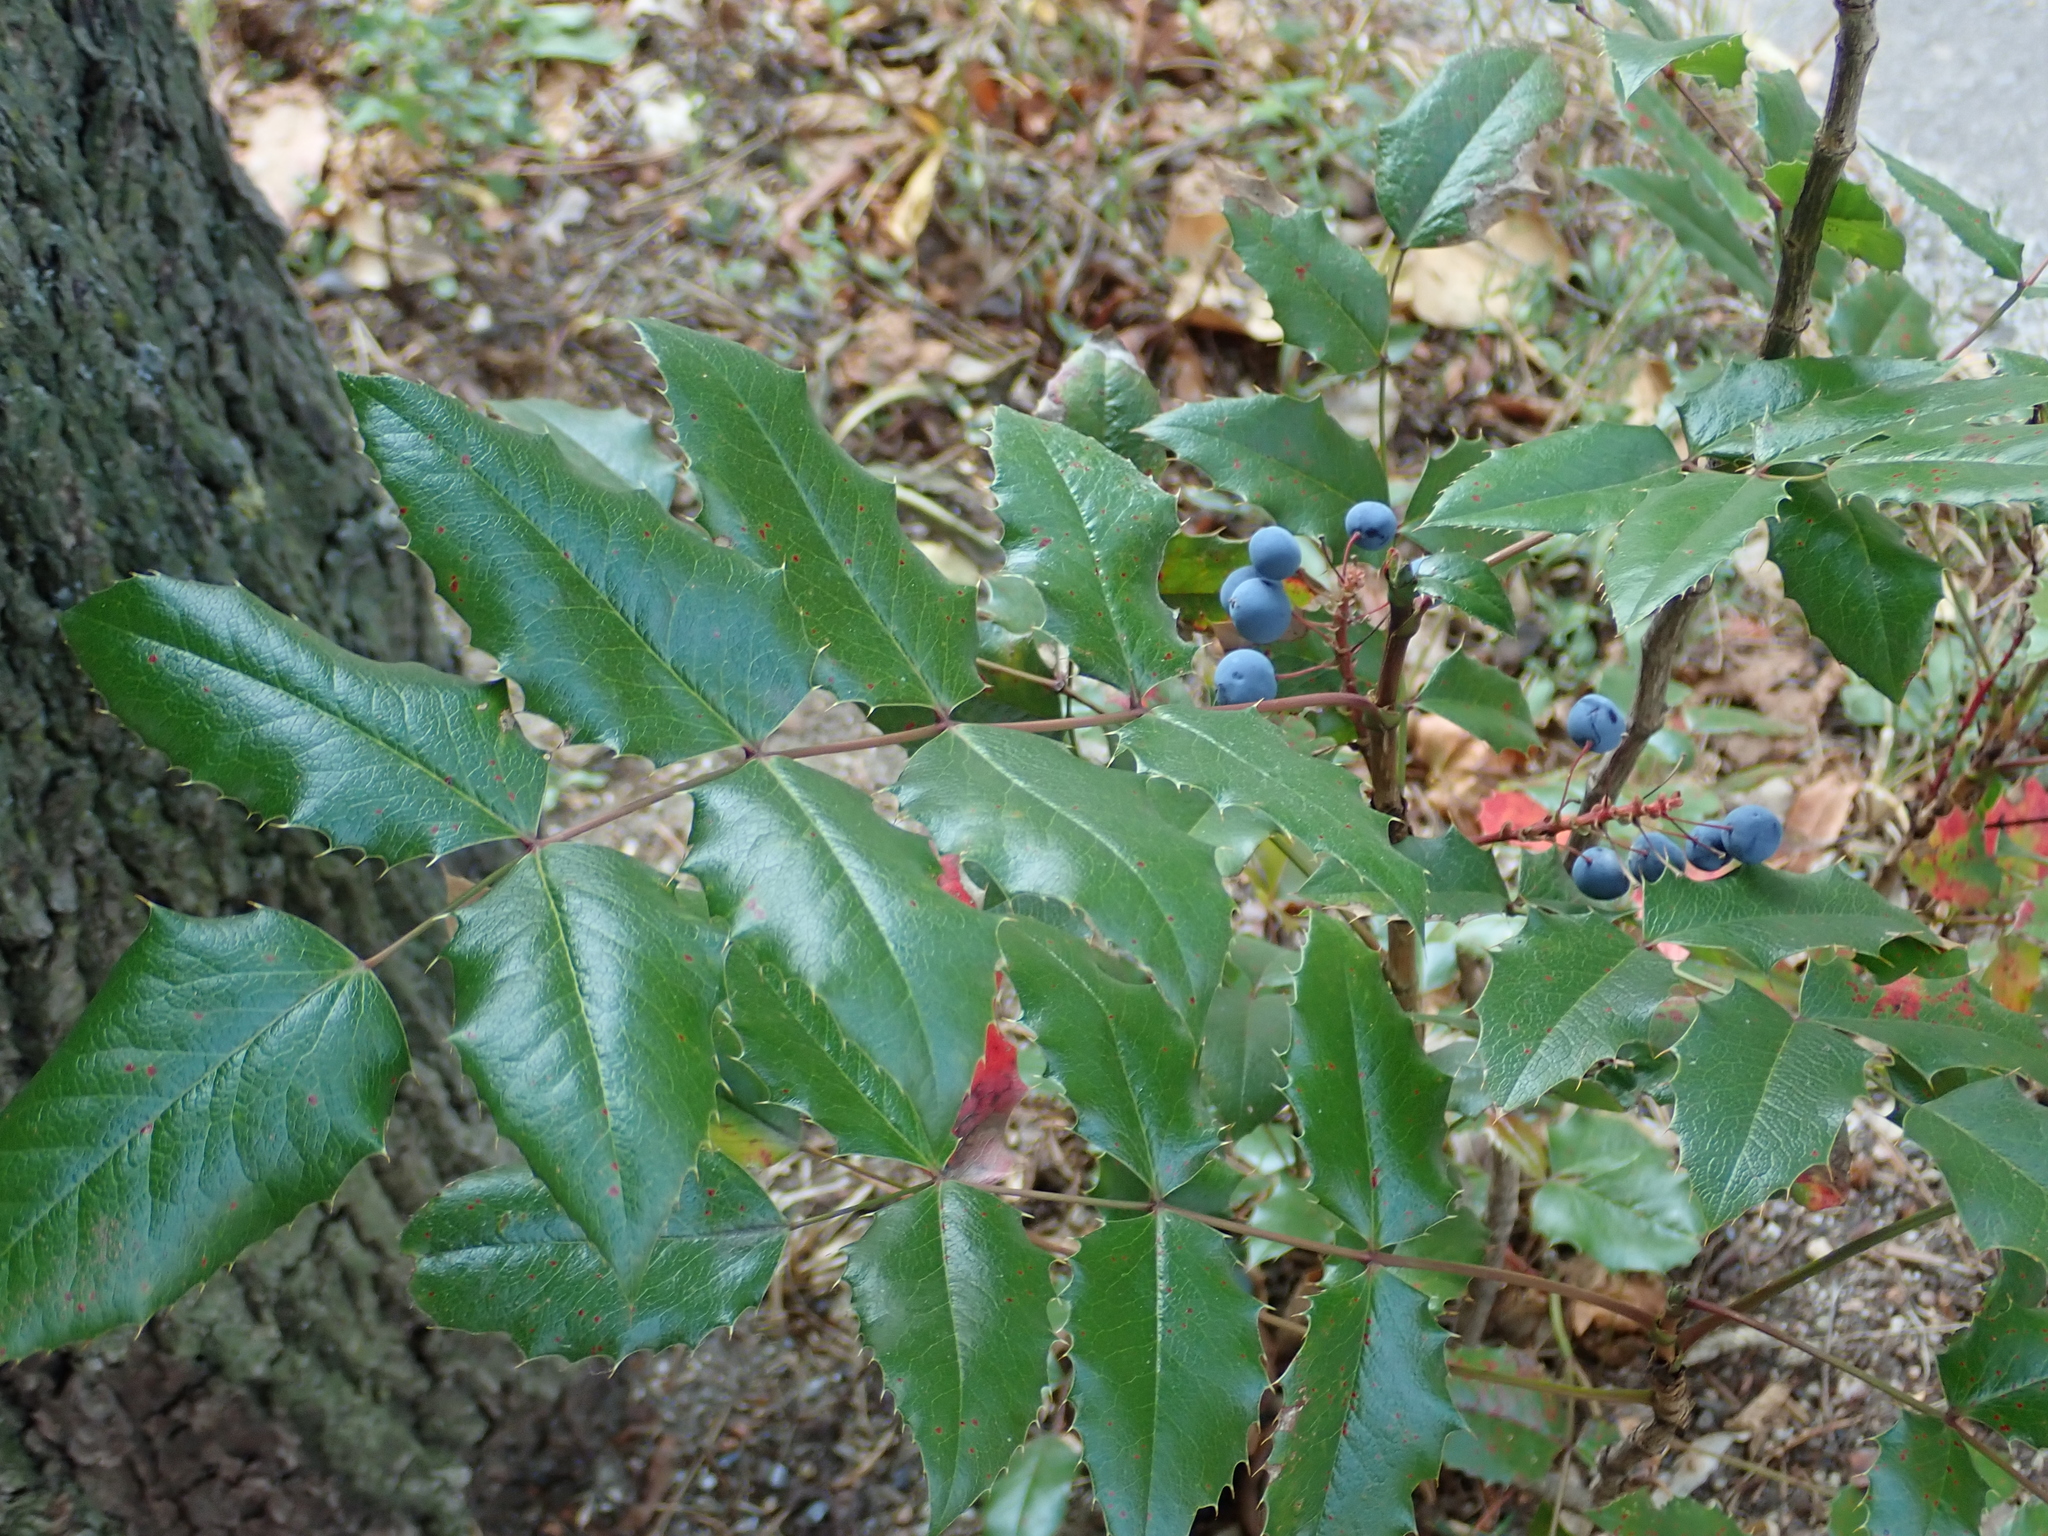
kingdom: Plantae
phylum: Tracheophyta
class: Magnoliopsida
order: Ranunculales
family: Berberidaceae
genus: Mahonia
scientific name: Mahonia aquifolium
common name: Oregon-grape
